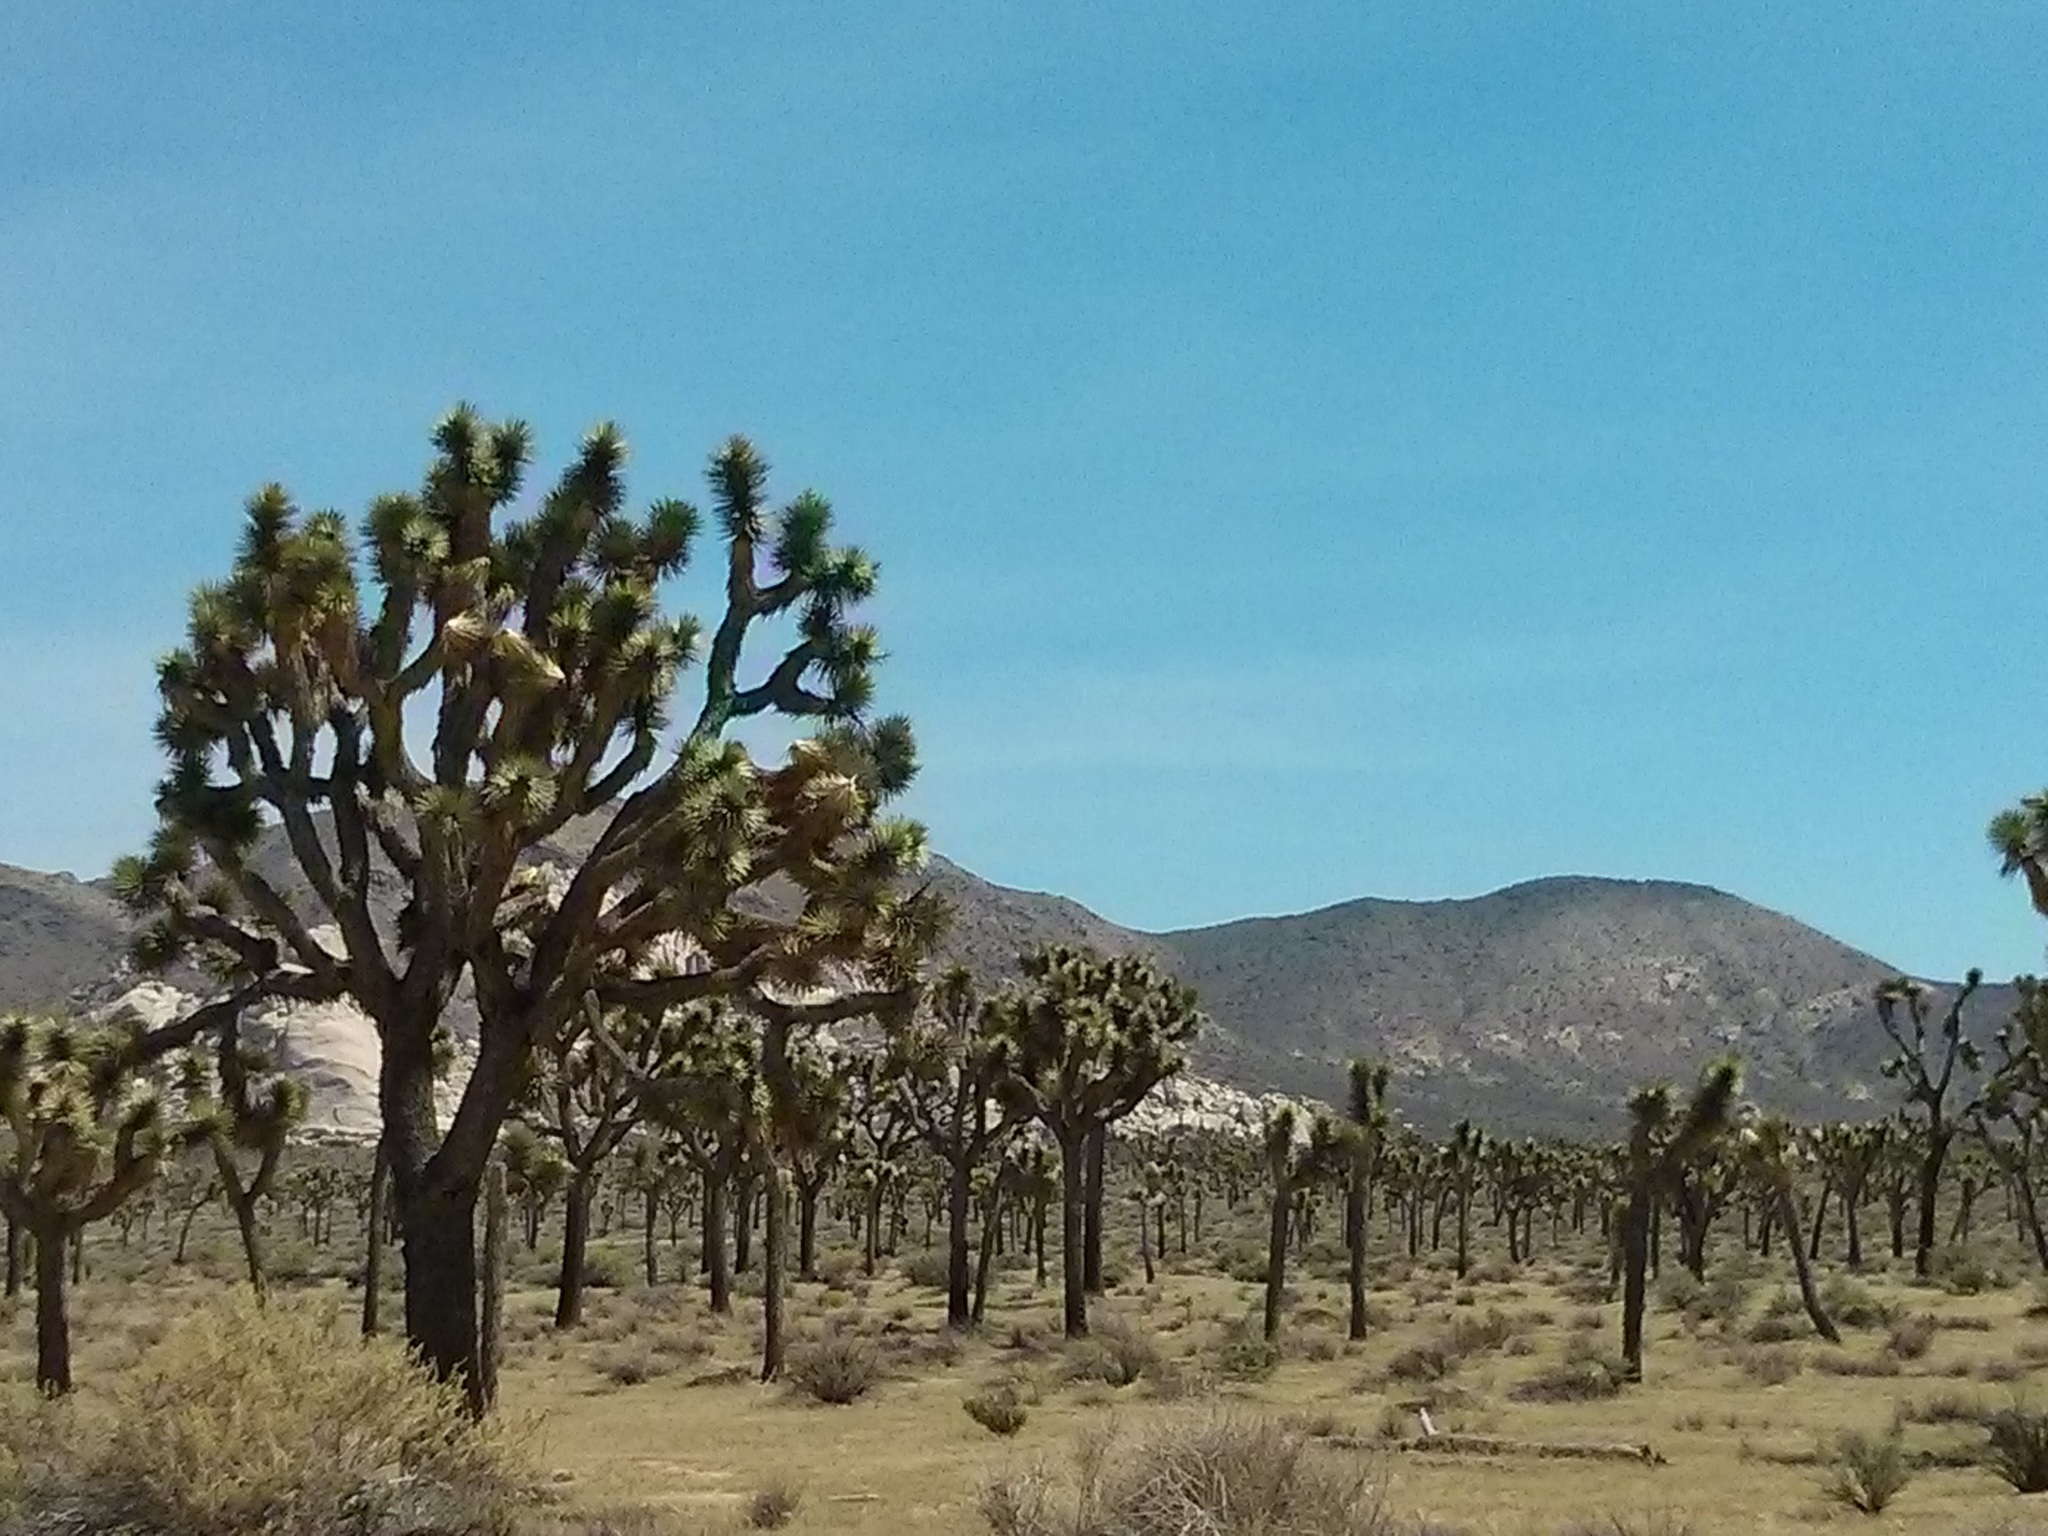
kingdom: Plantae
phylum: Tracheophyta
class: Liliopsida
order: Asparagales
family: Asparagaceae
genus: Yucca
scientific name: Yucca brevifolia
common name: Joshua tree
